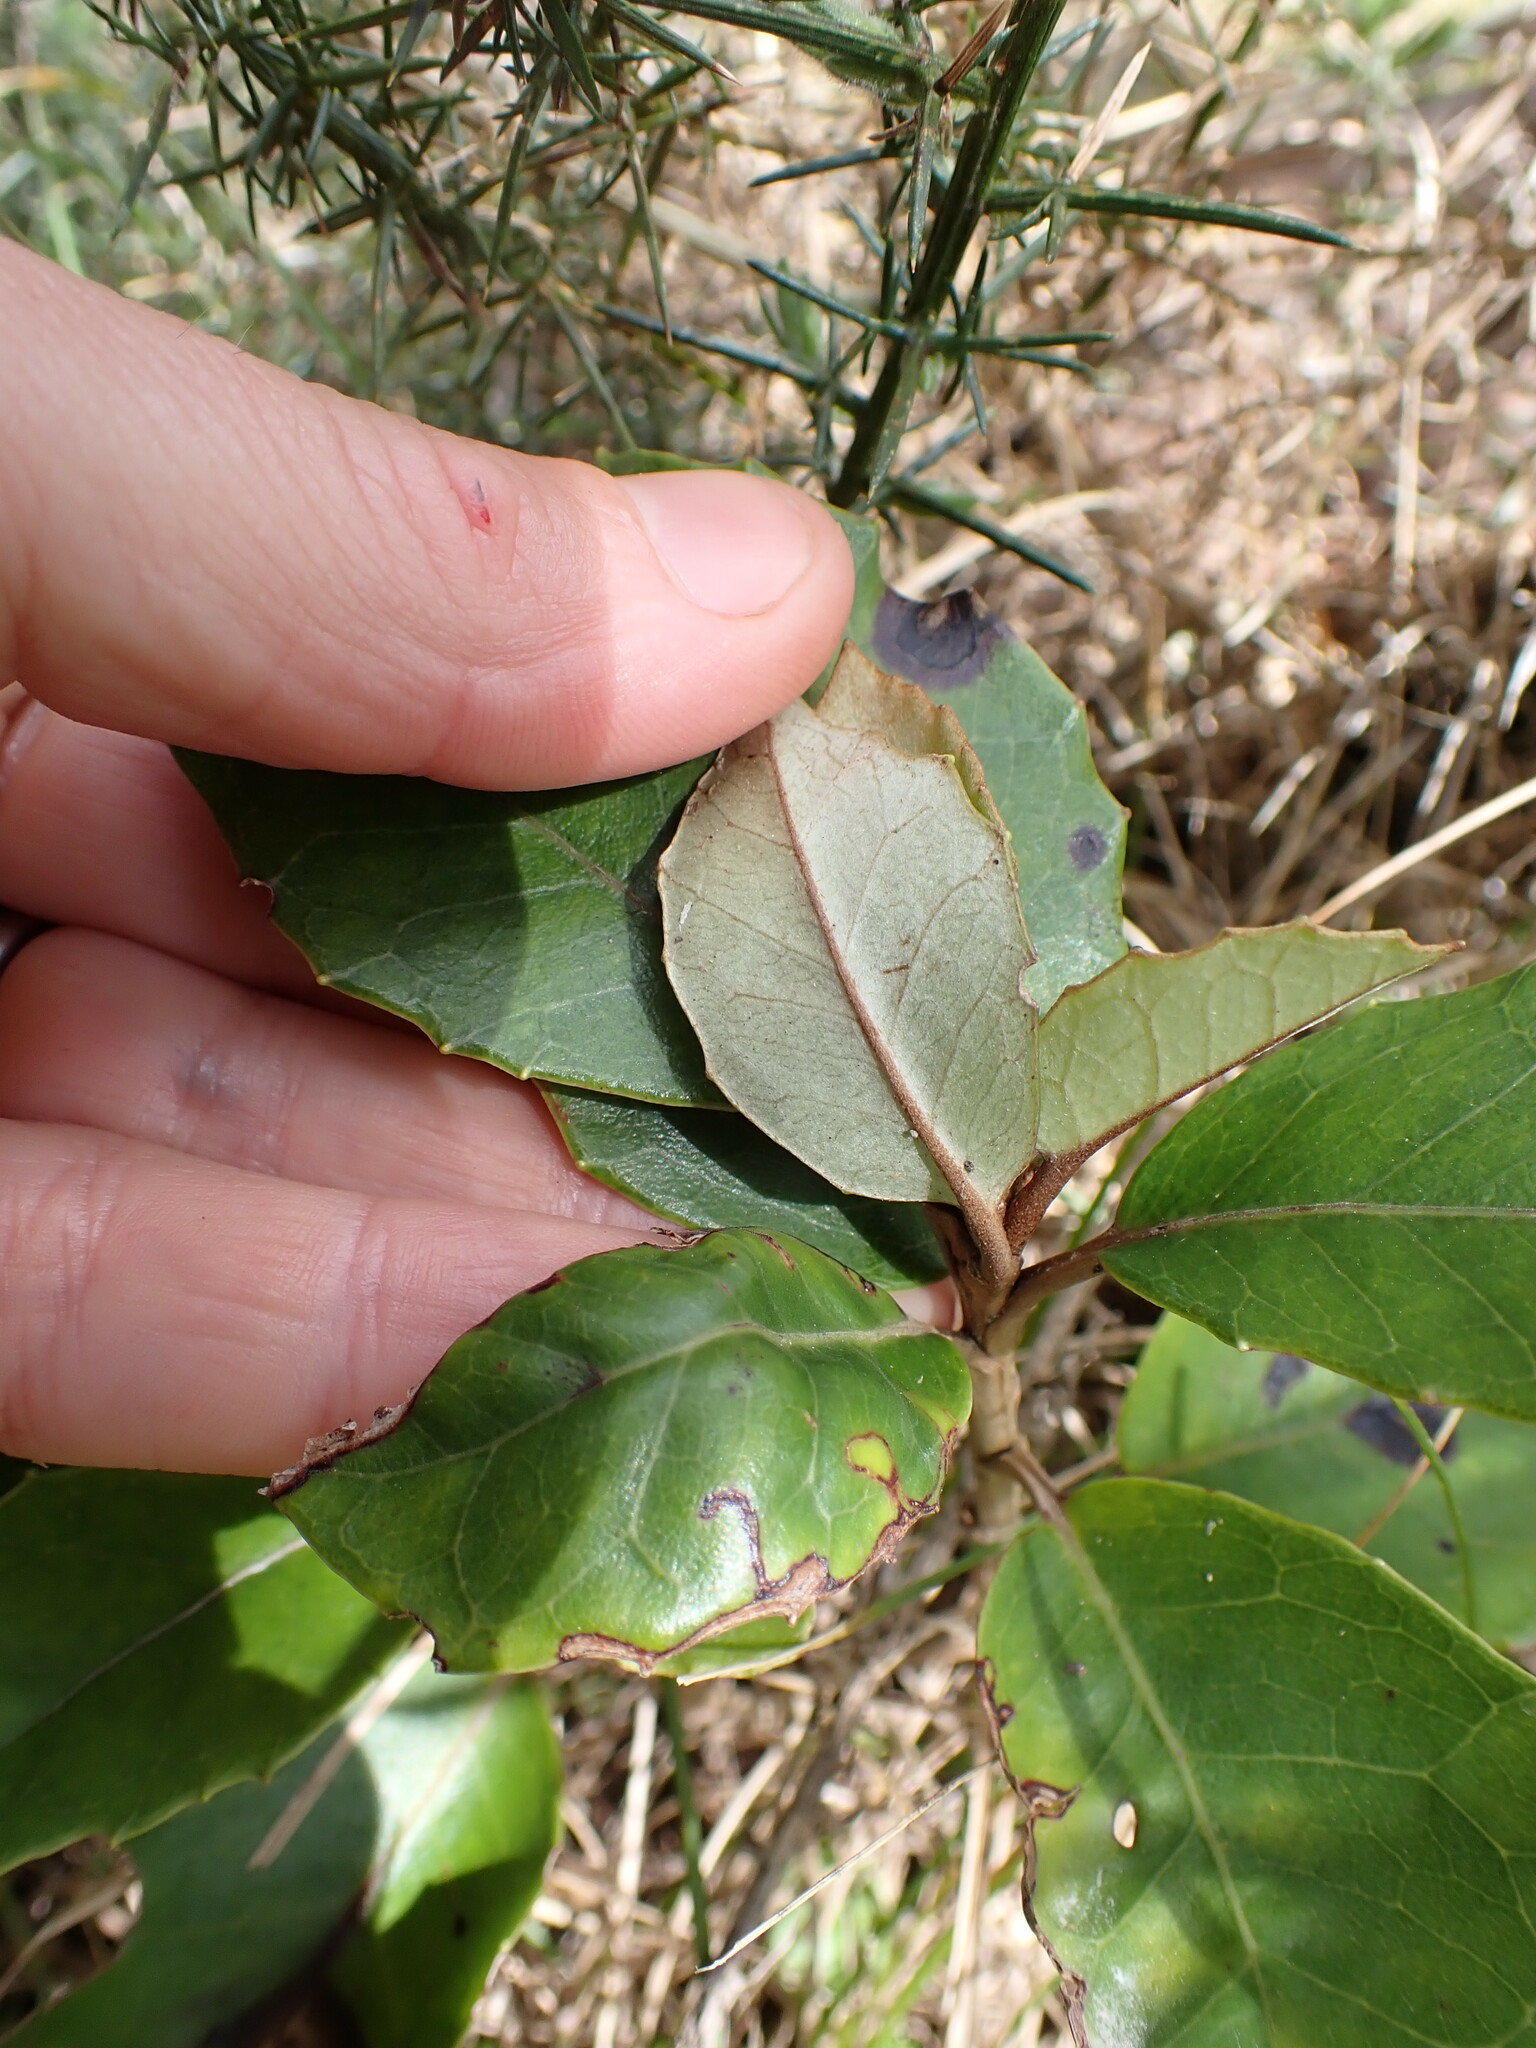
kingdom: Plantae
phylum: Tracheophyta
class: Magnoliopsida
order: Asterales
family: Asteraceae
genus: Olearia
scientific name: Olearia arborescens
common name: Glossy tree daisy
